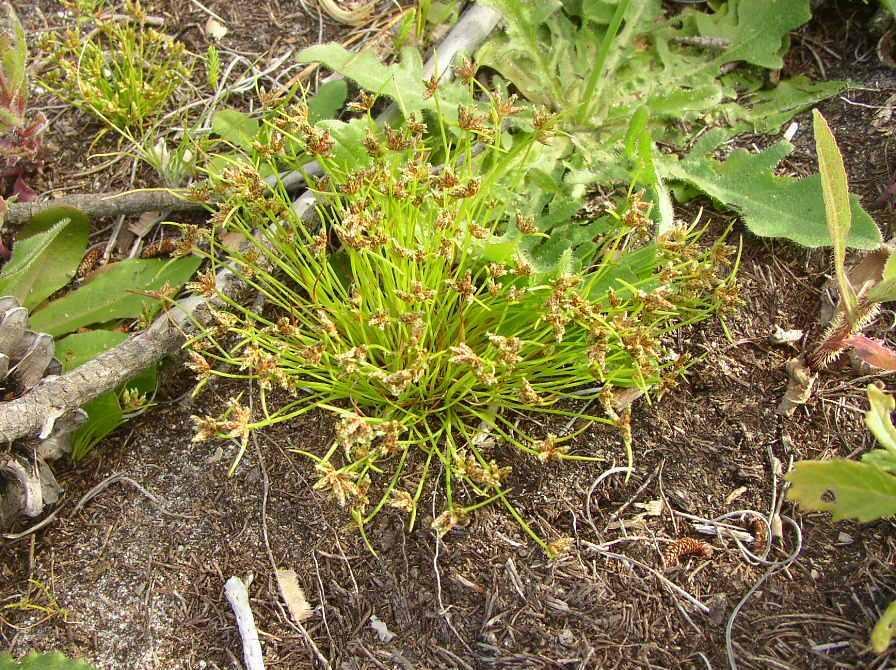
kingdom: Plantae
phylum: Tracheophyta
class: Liliopsida
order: Poales
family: Cyperaceae
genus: Isolepis
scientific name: Isolepis marginata
